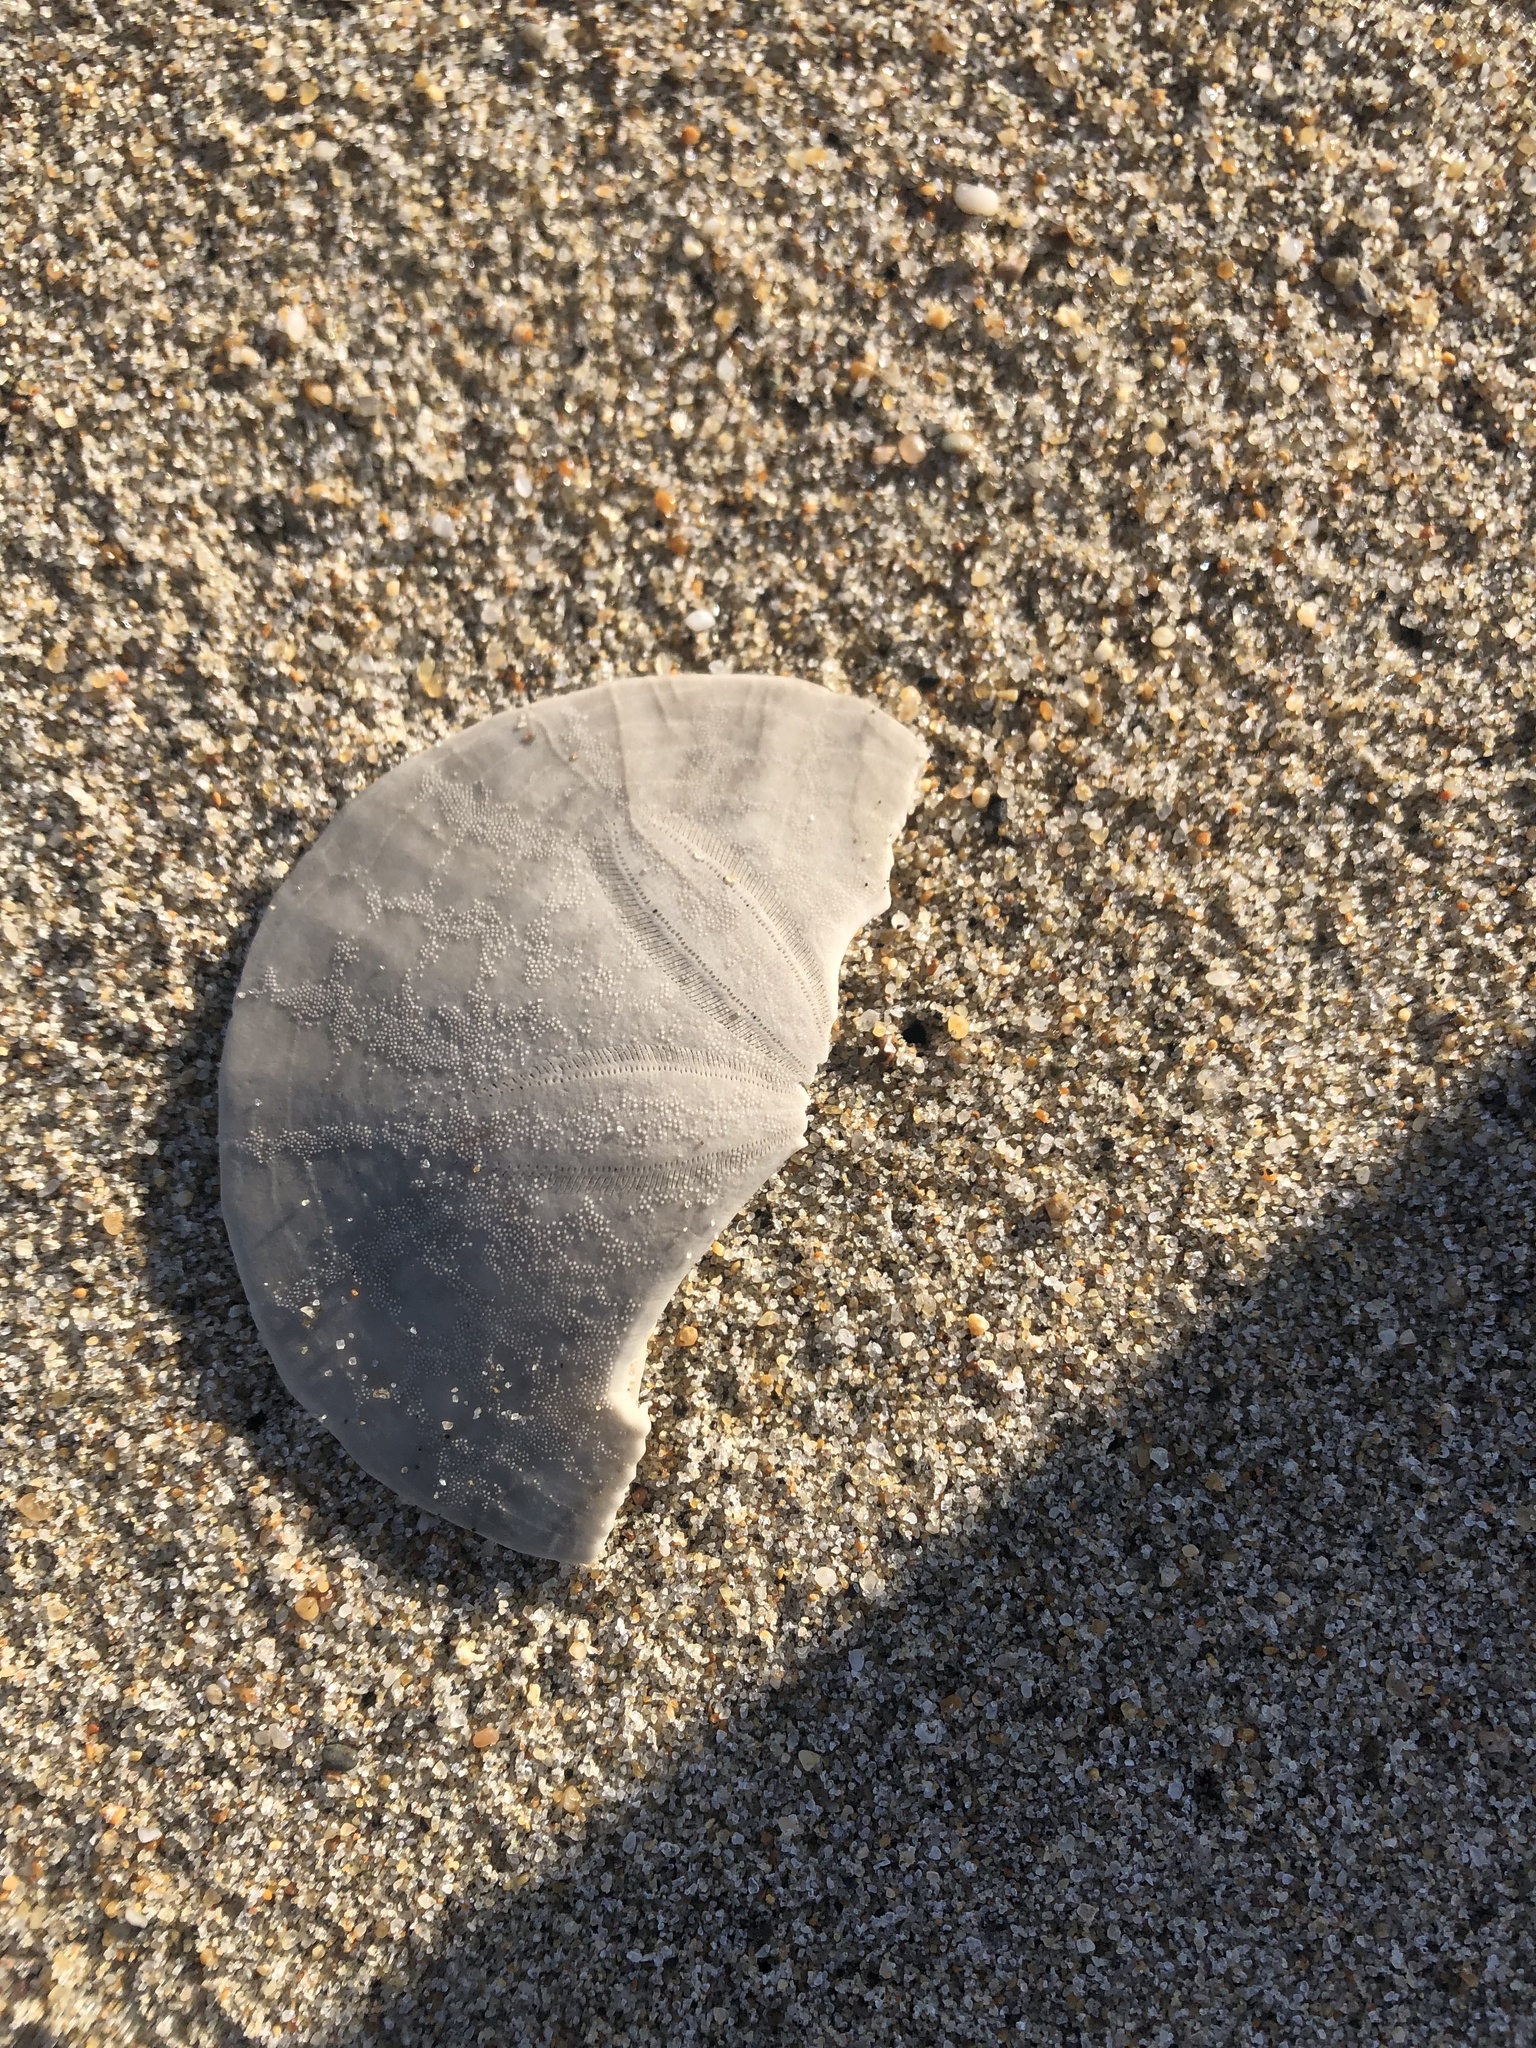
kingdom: Animalia
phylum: Echinodermata
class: Echinoidea
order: Echinolampadacea
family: Dendrasteridae
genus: Dendraster
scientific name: Dendraster excentricus
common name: Eccentric sand dollar sea urchin
